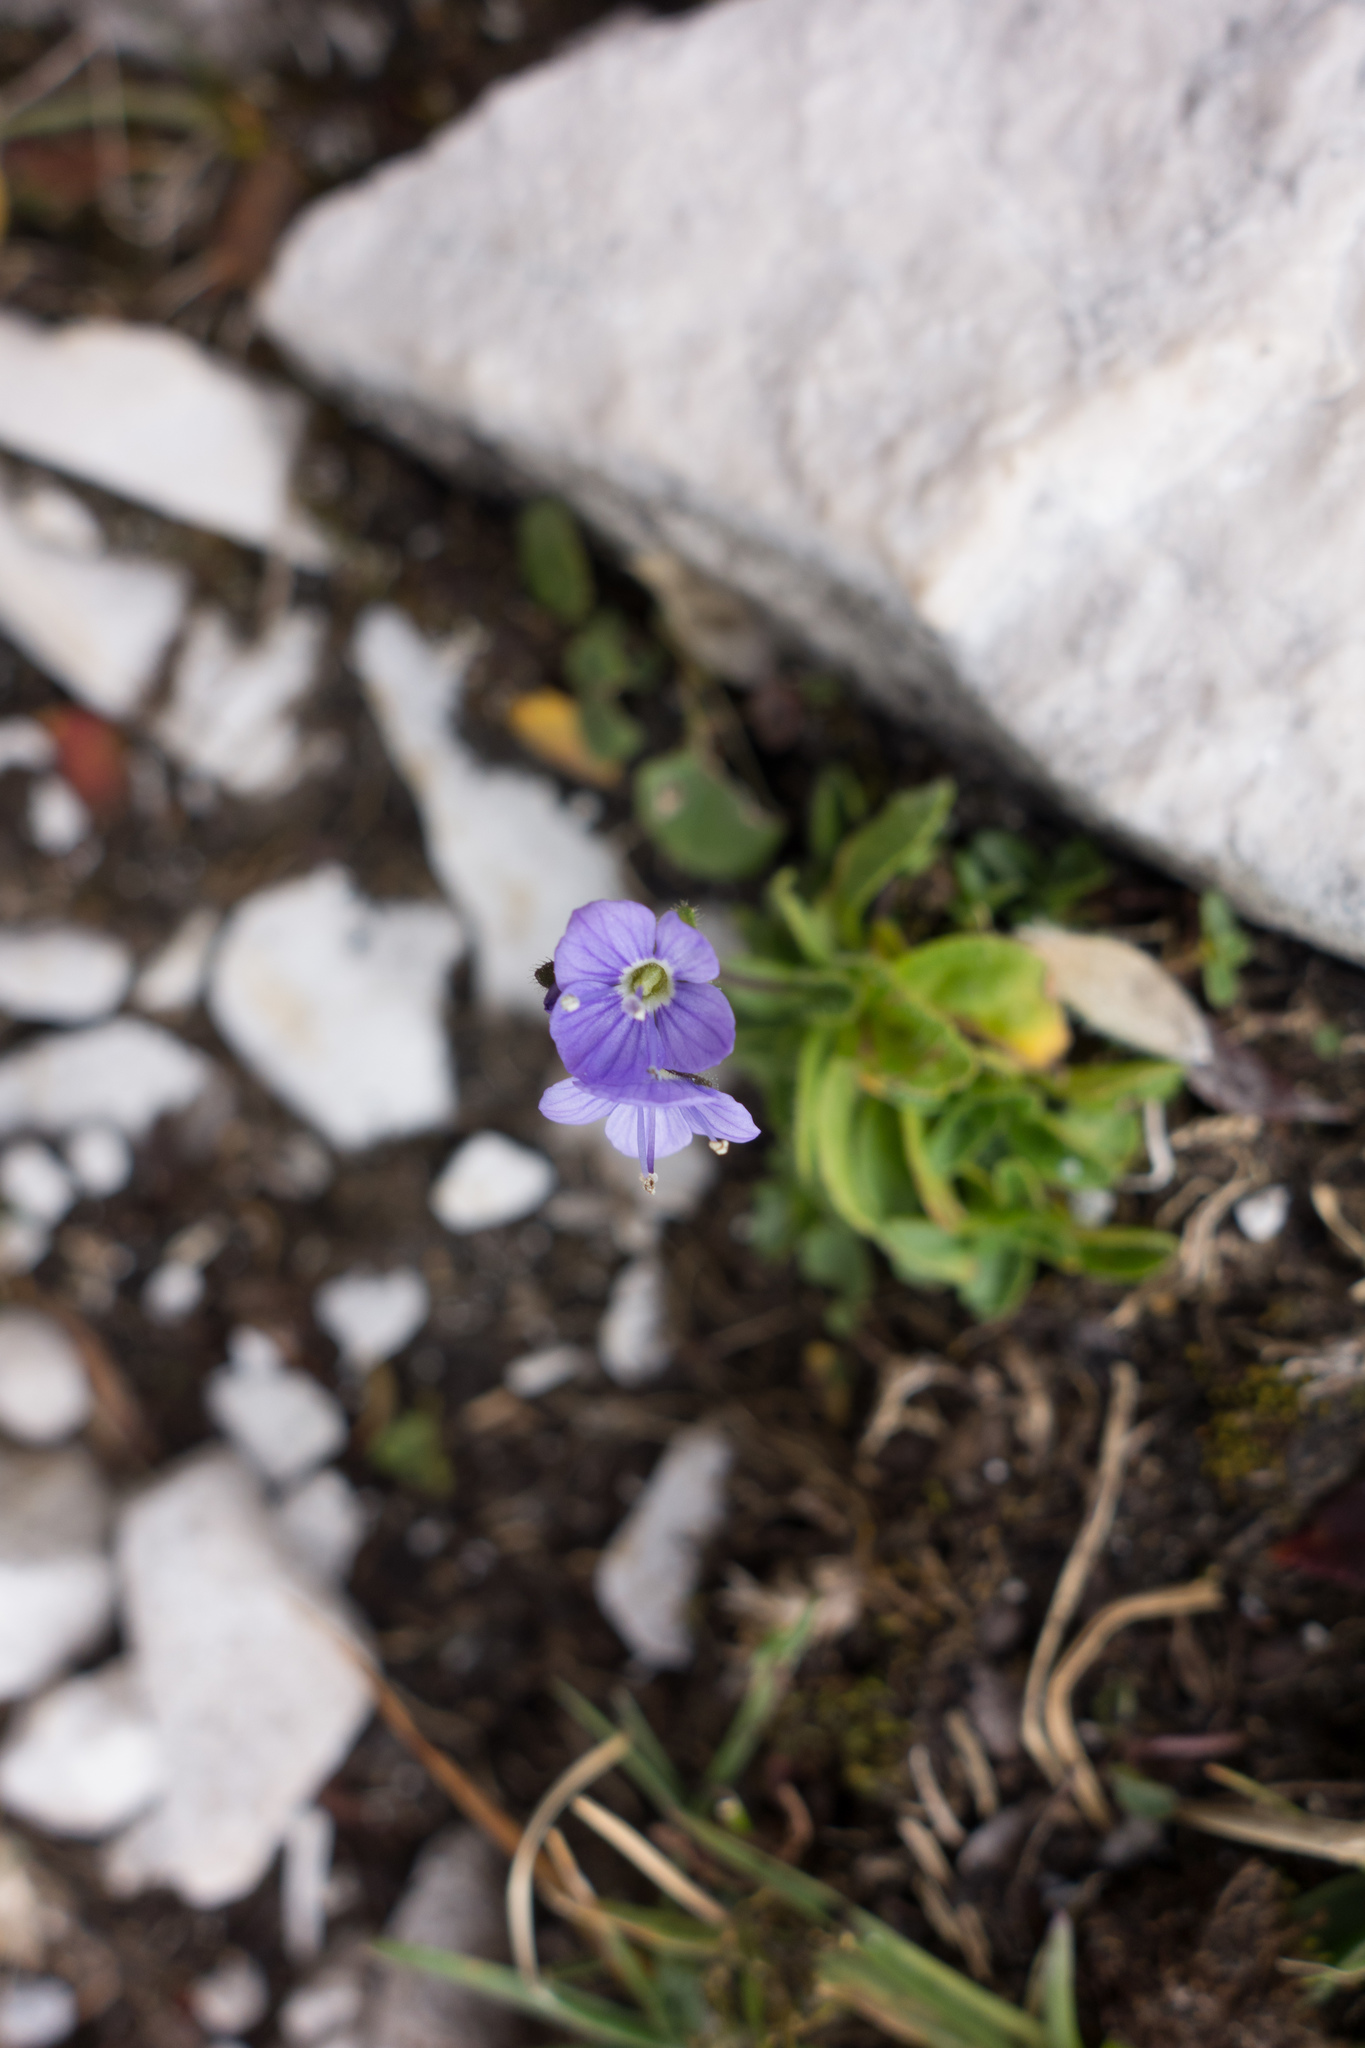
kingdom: Plantae
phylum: Tracheophyta
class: Magnoliopsida
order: Lamiales
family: Plantaginaceae
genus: Veronica
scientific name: Veronica aphylla
